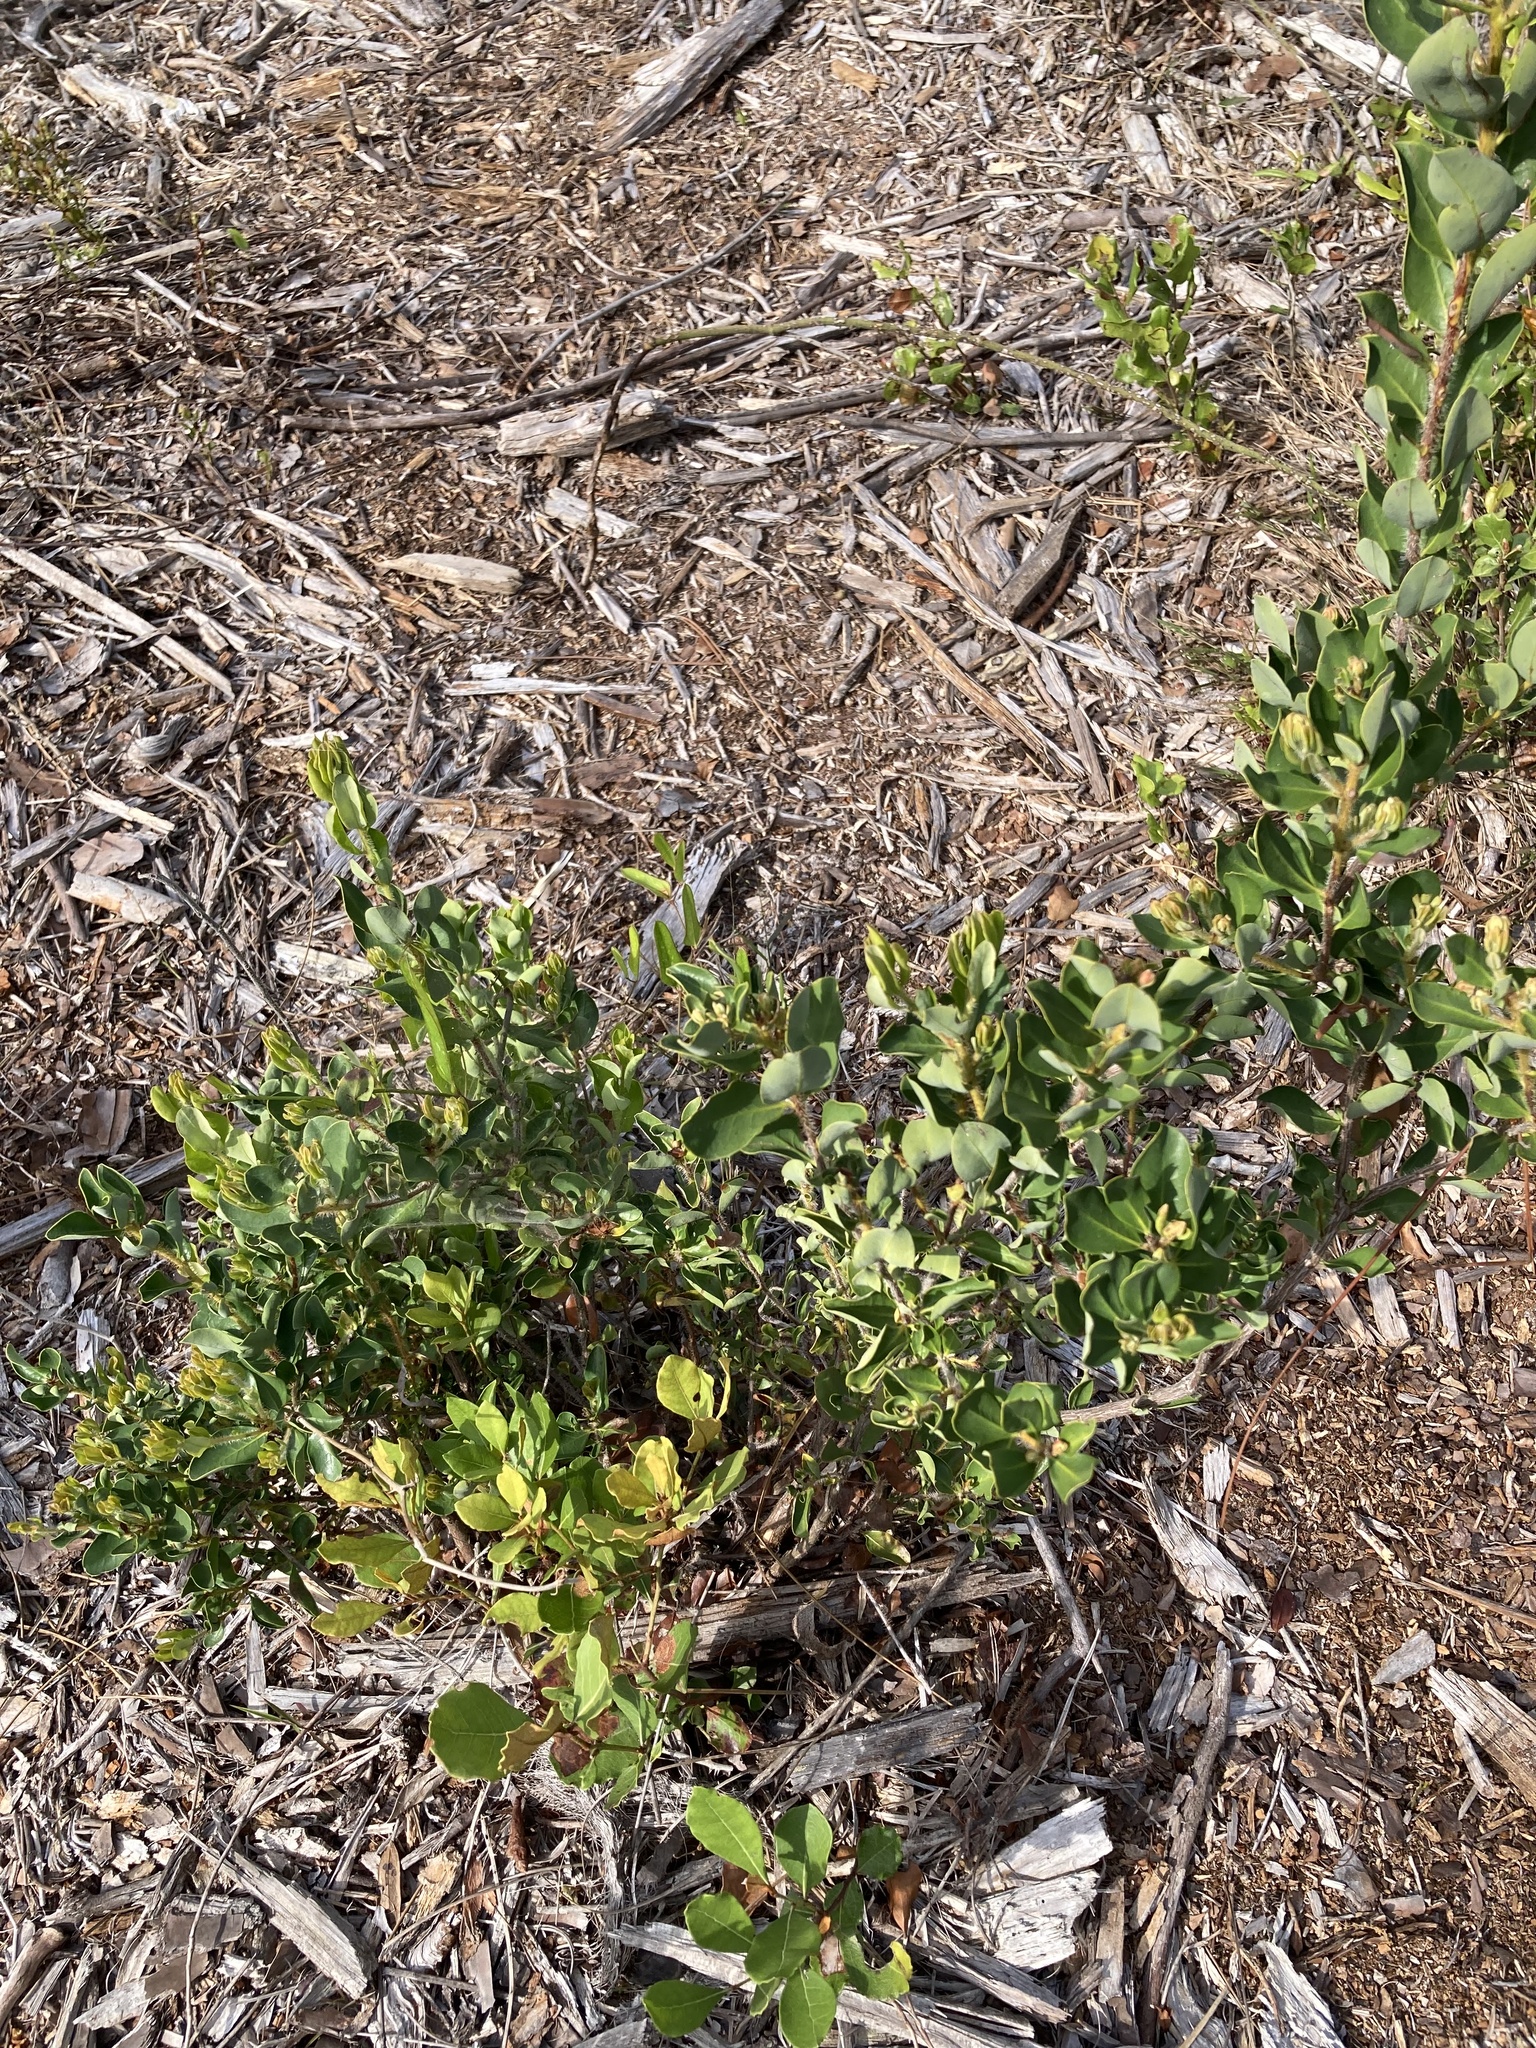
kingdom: Plantae
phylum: Tracheophyta
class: Magnoliopsida
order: Ericales
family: Ericaceae
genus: Bejaria
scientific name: Bejaria racemosa
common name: Tarflower
